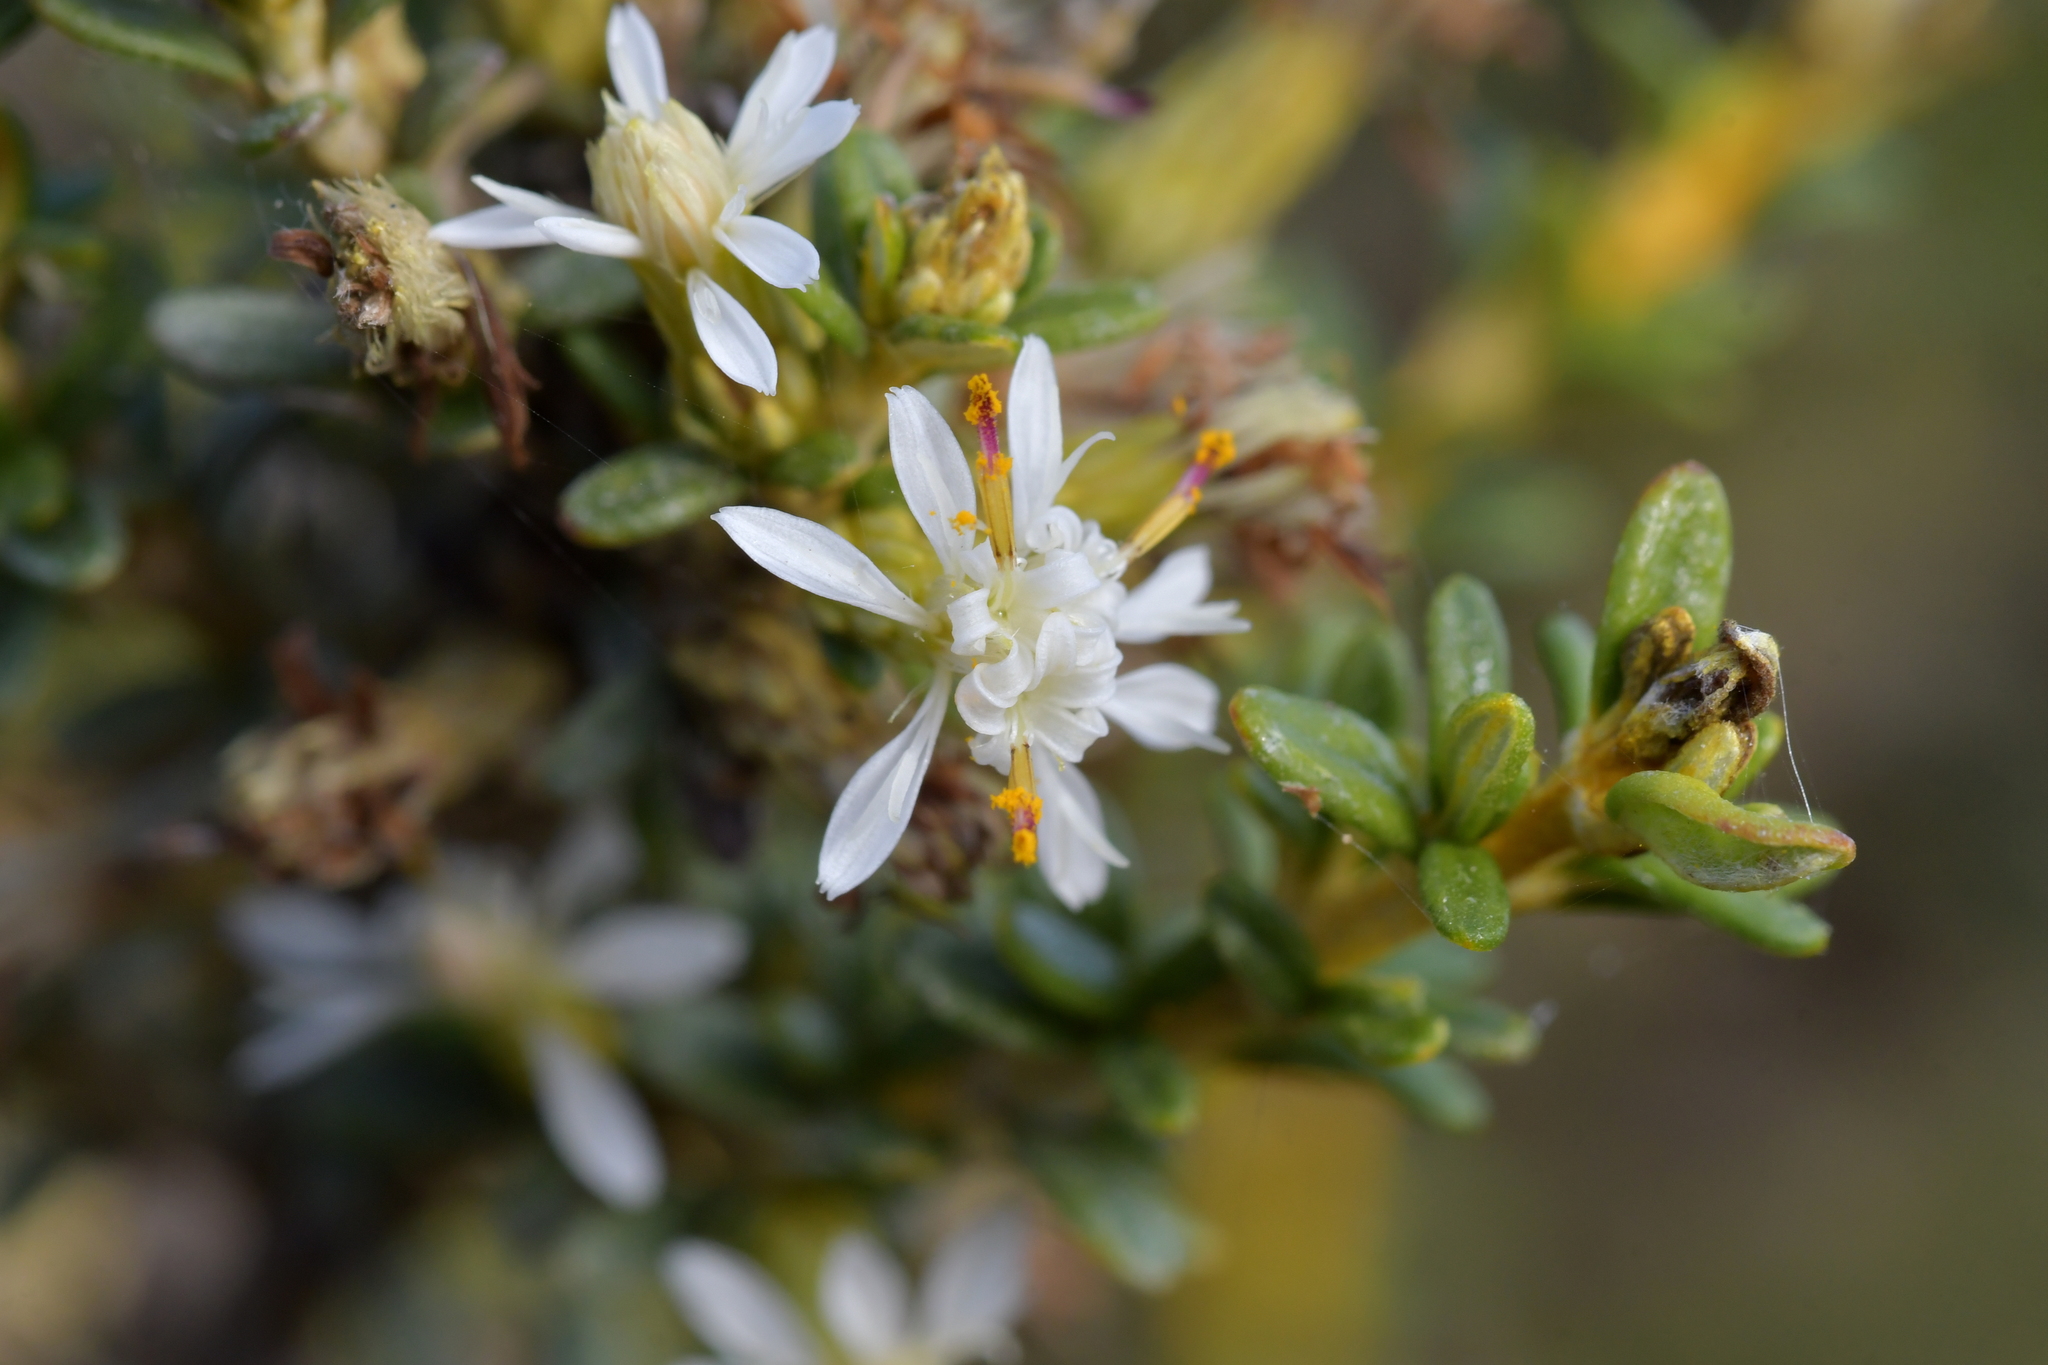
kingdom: Plantae
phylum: Tracheophyta
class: Magnoliopsida
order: Asterales
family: Asteraceae
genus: Olearia
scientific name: Olearia solandri
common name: Coastal daisybush
